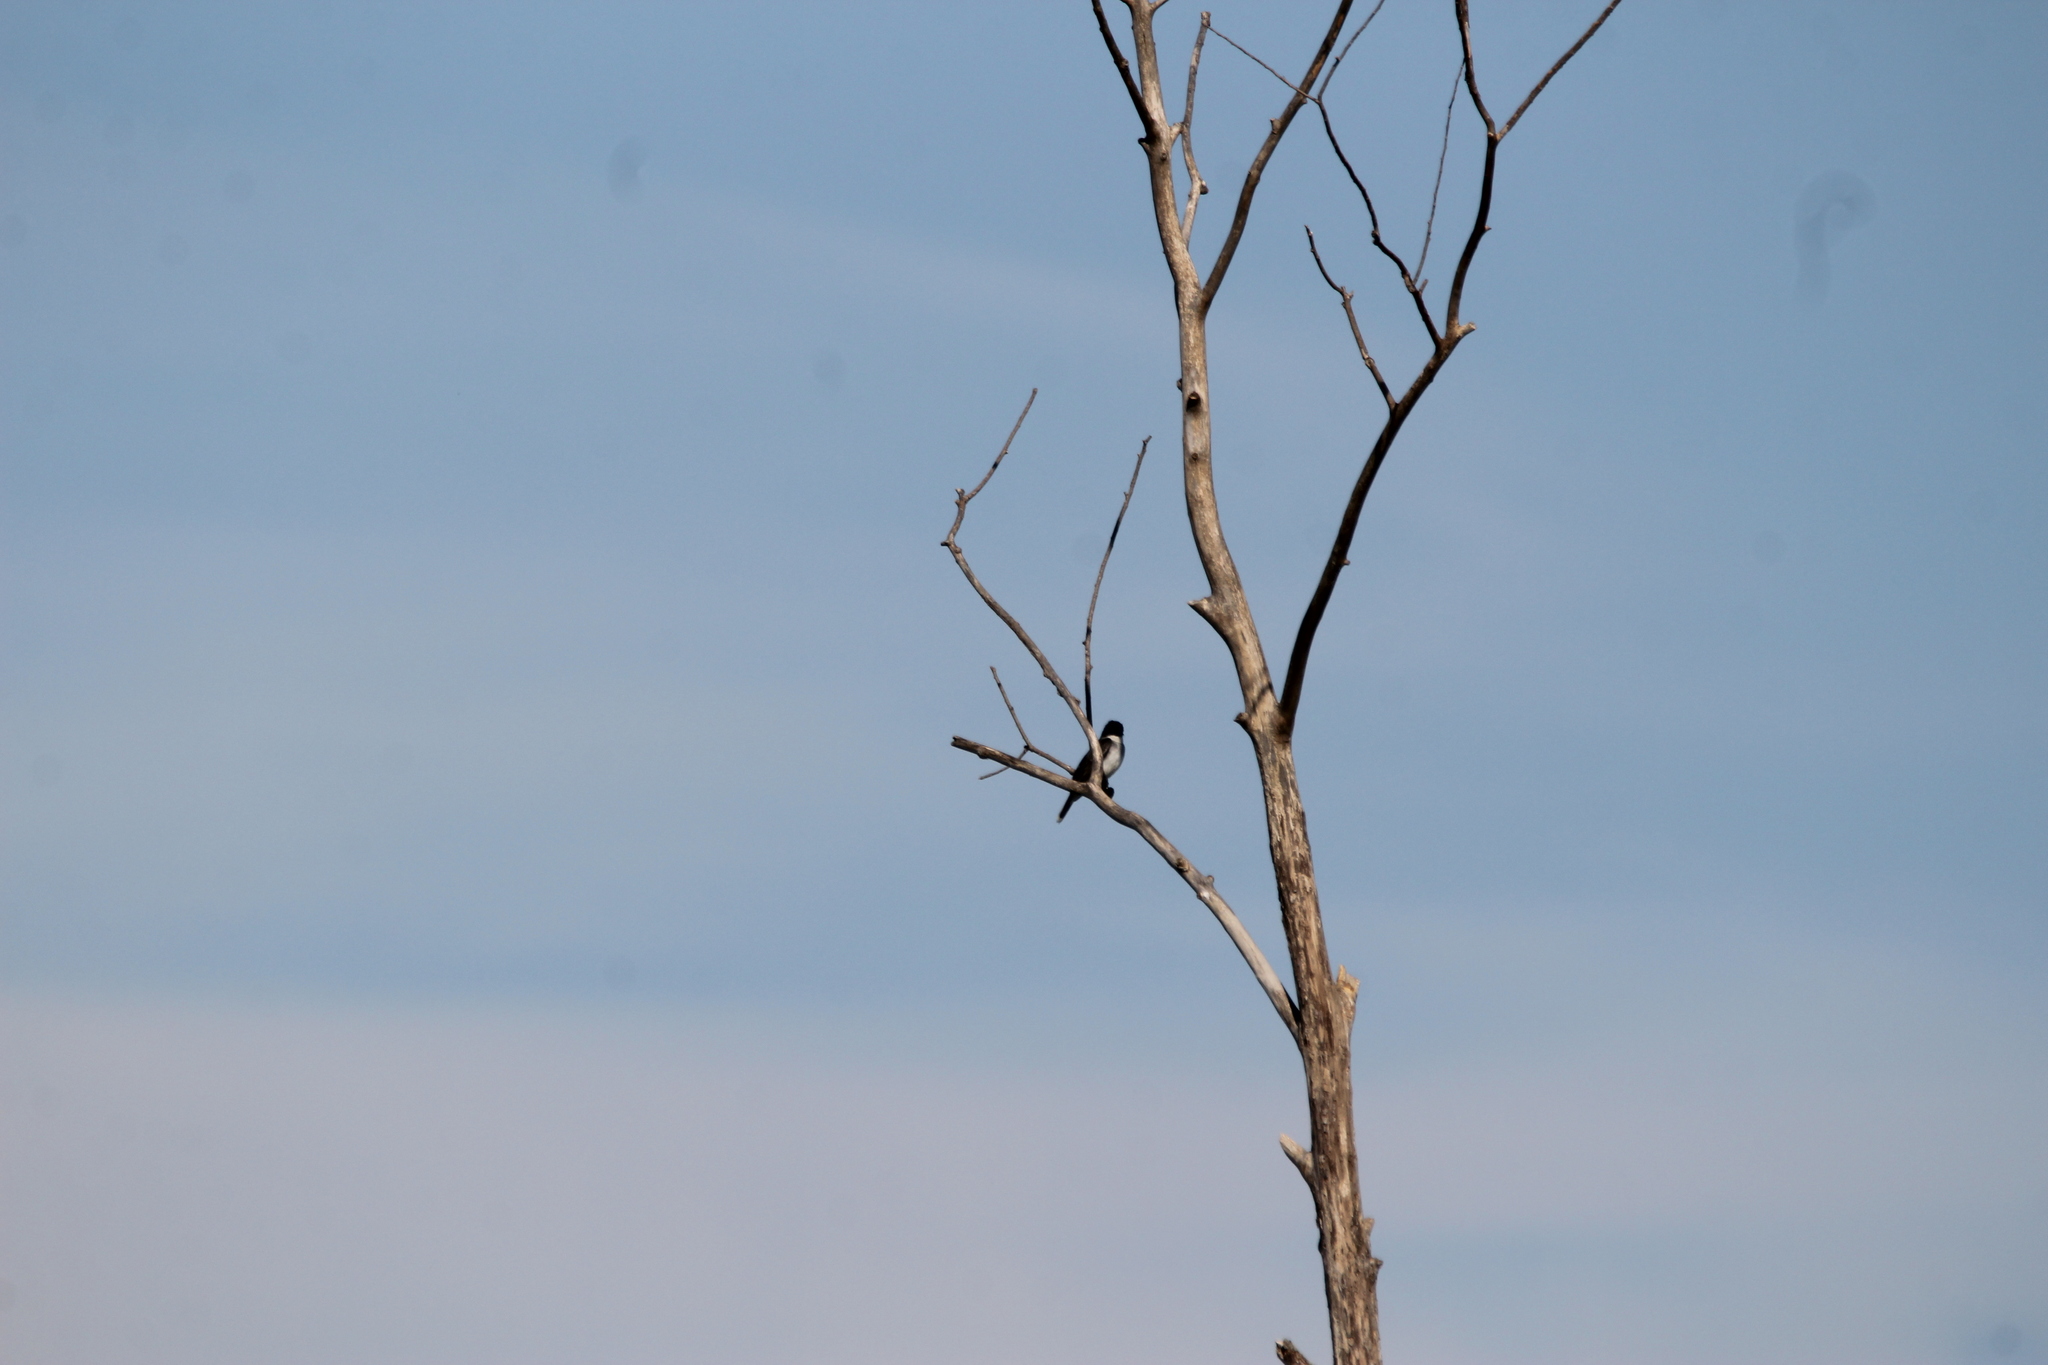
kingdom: Animalia
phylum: Chordata
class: Aves
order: Passeriformes
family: Tyrannidae
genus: Tyrannus
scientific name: Tyrannus tyrannus
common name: Eastern kingbird
